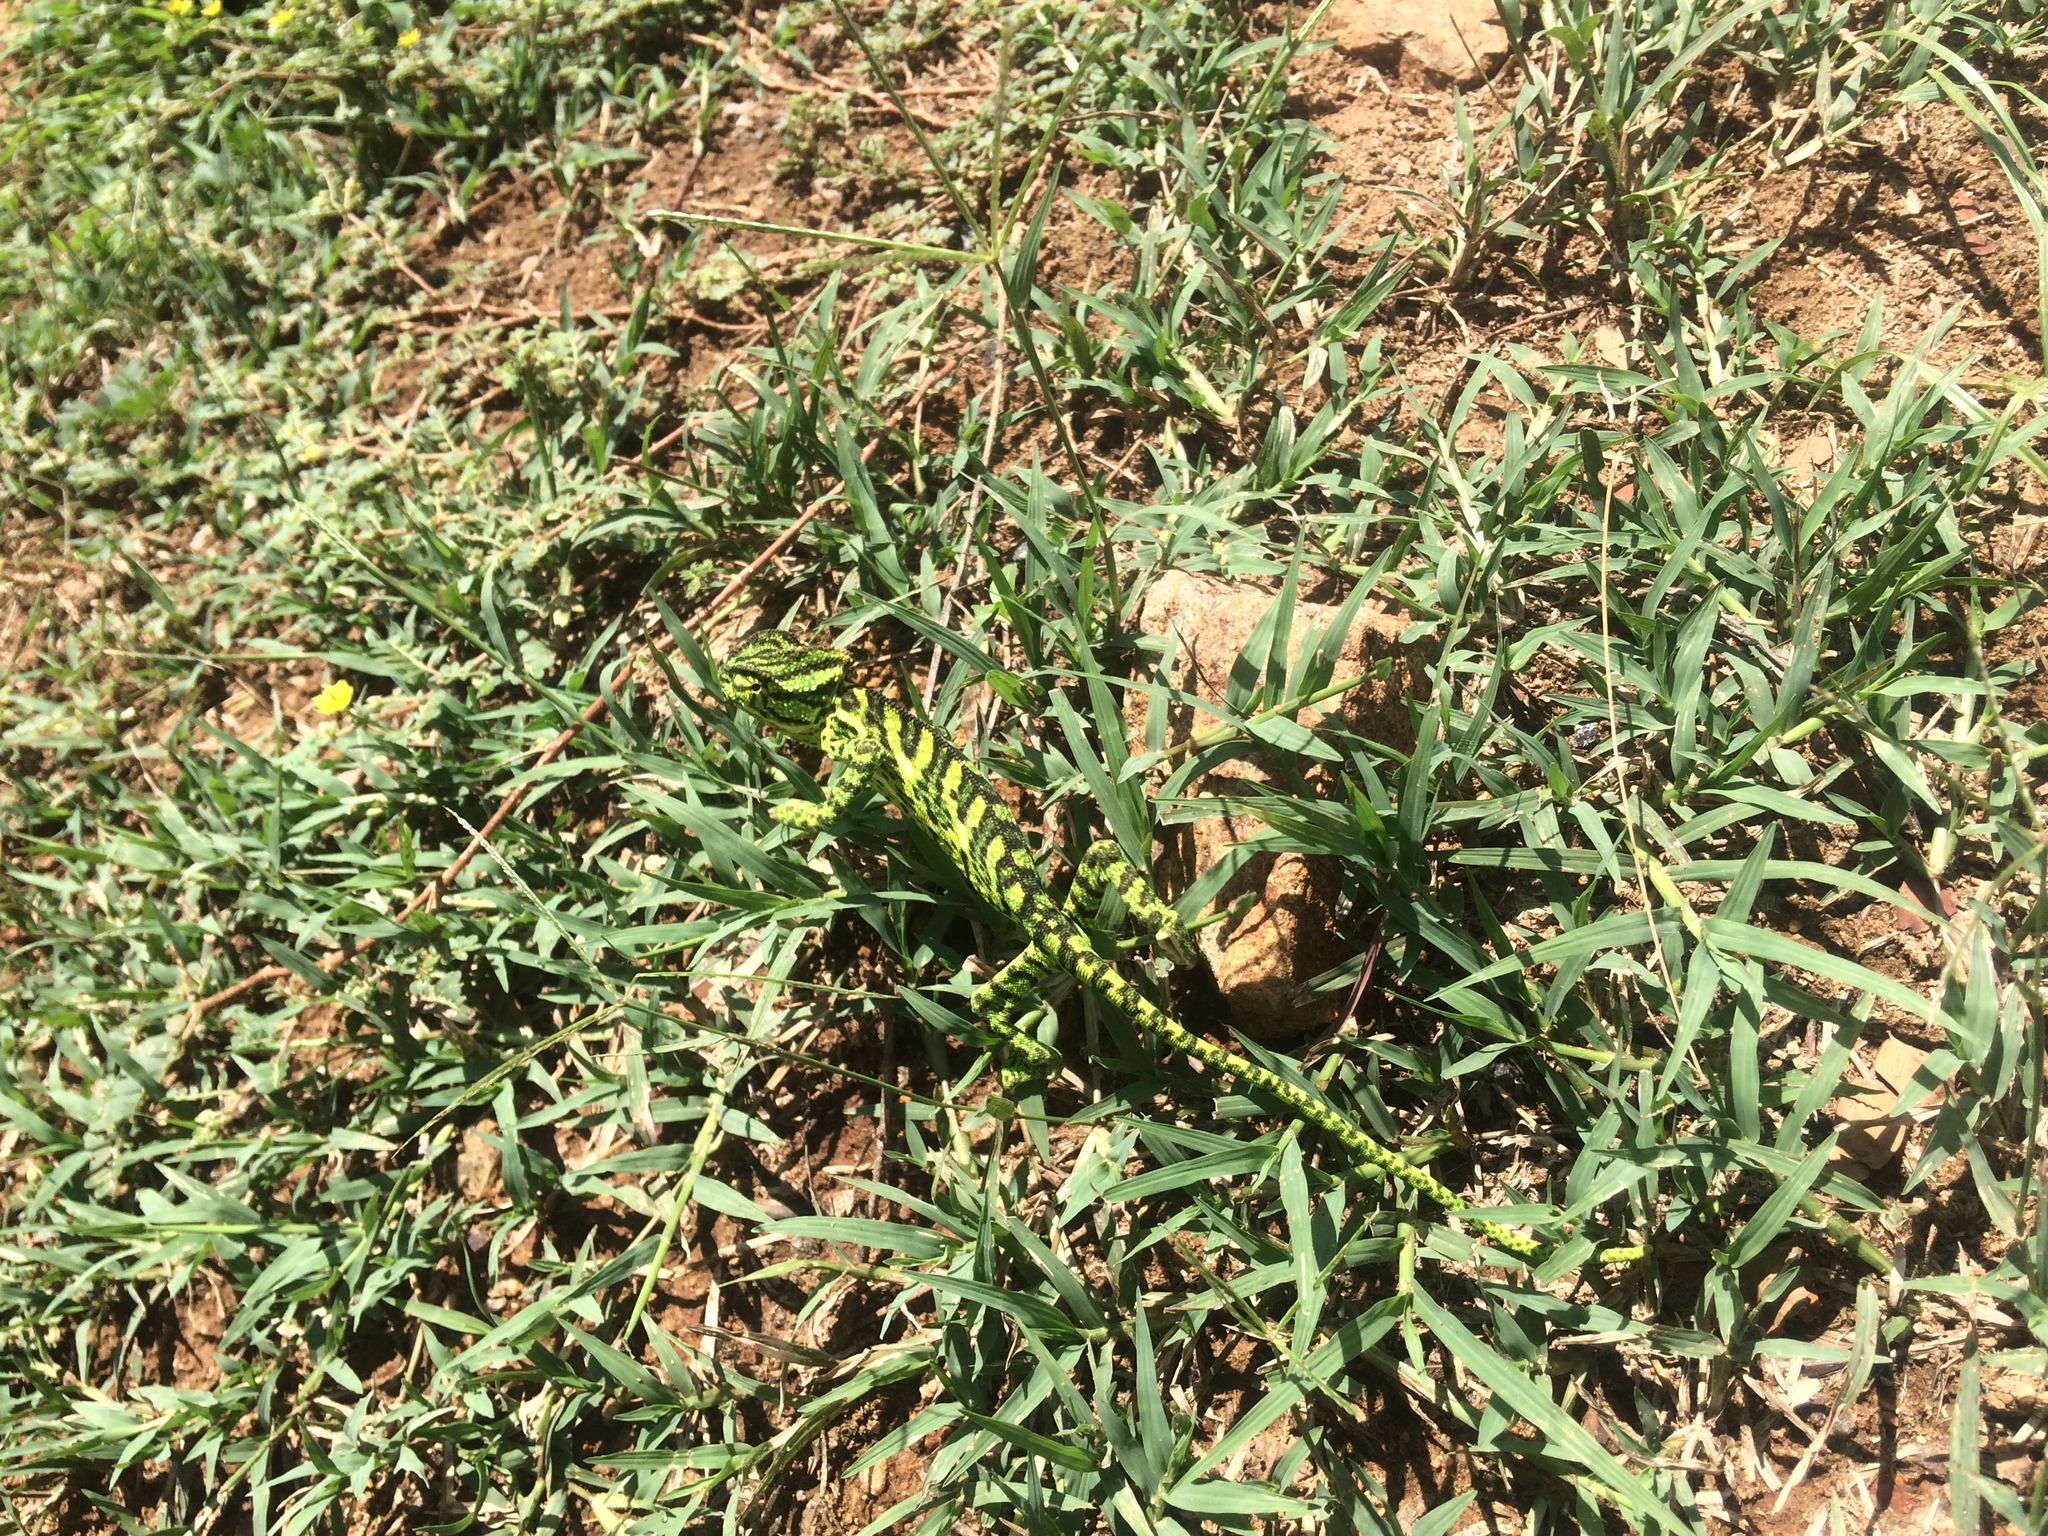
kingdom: Animalia
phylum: Chordata
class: Squamata
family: Chamaeleonidae
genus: Chamaeleo
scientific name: Chamaeleo zeylanicus
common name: Indian chameleon
